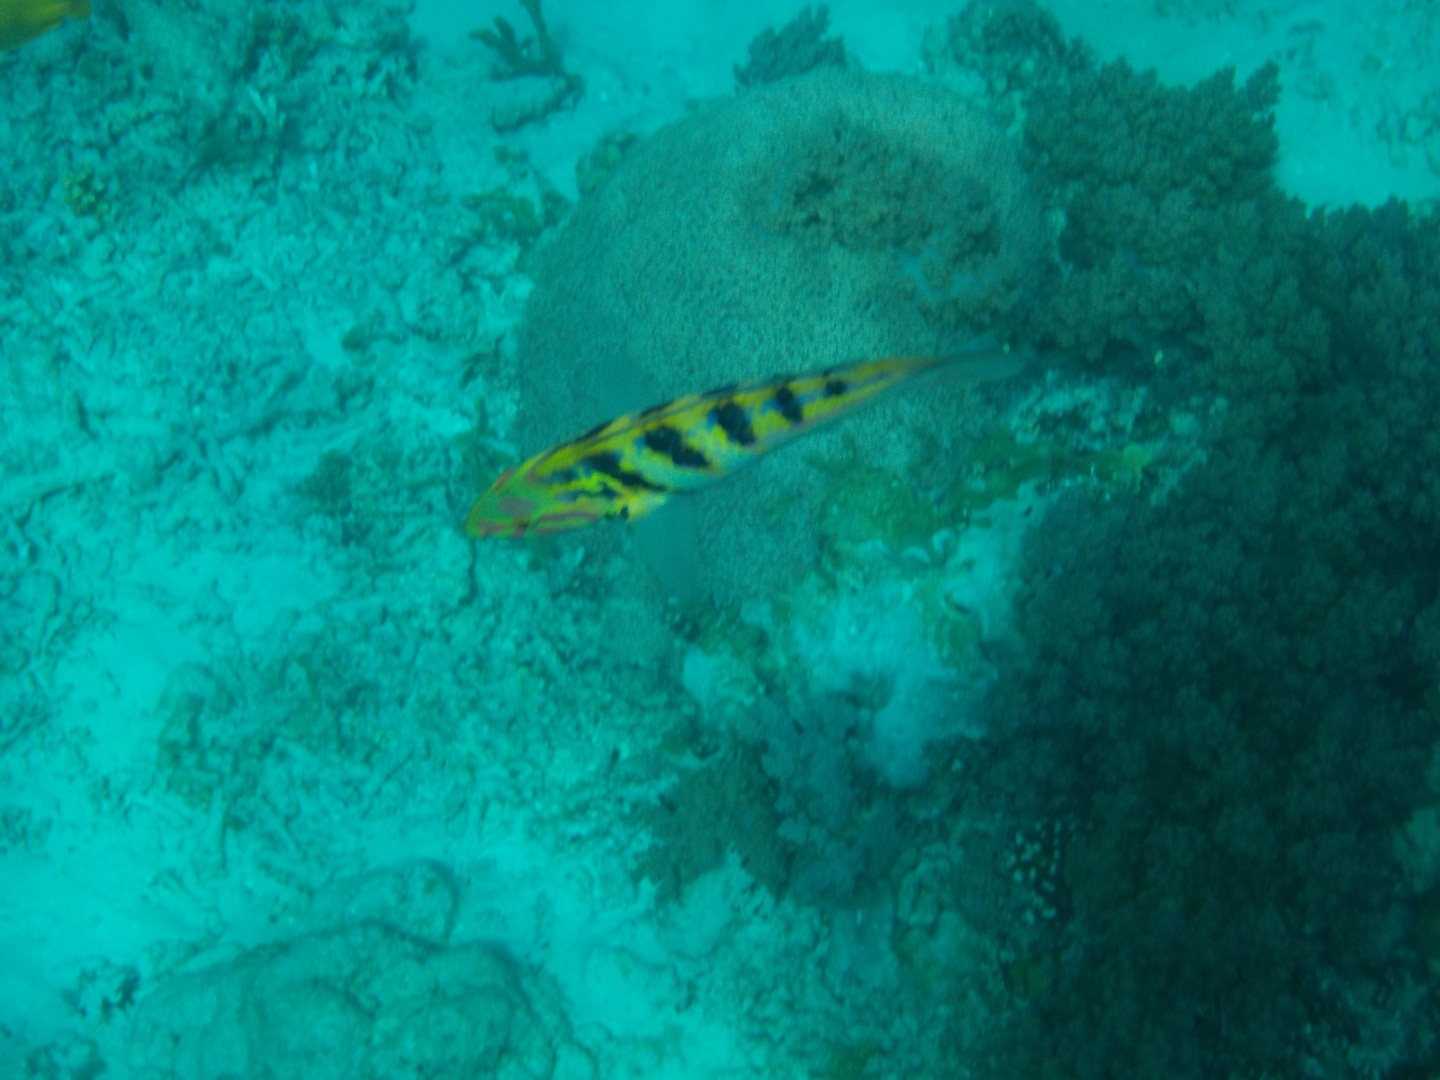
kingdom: Animalia
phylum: Chordata
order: Perciformes
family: Labridae
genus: Thalassoma
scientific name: Thalassoma hardwicke
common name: Sixbar wrasse
